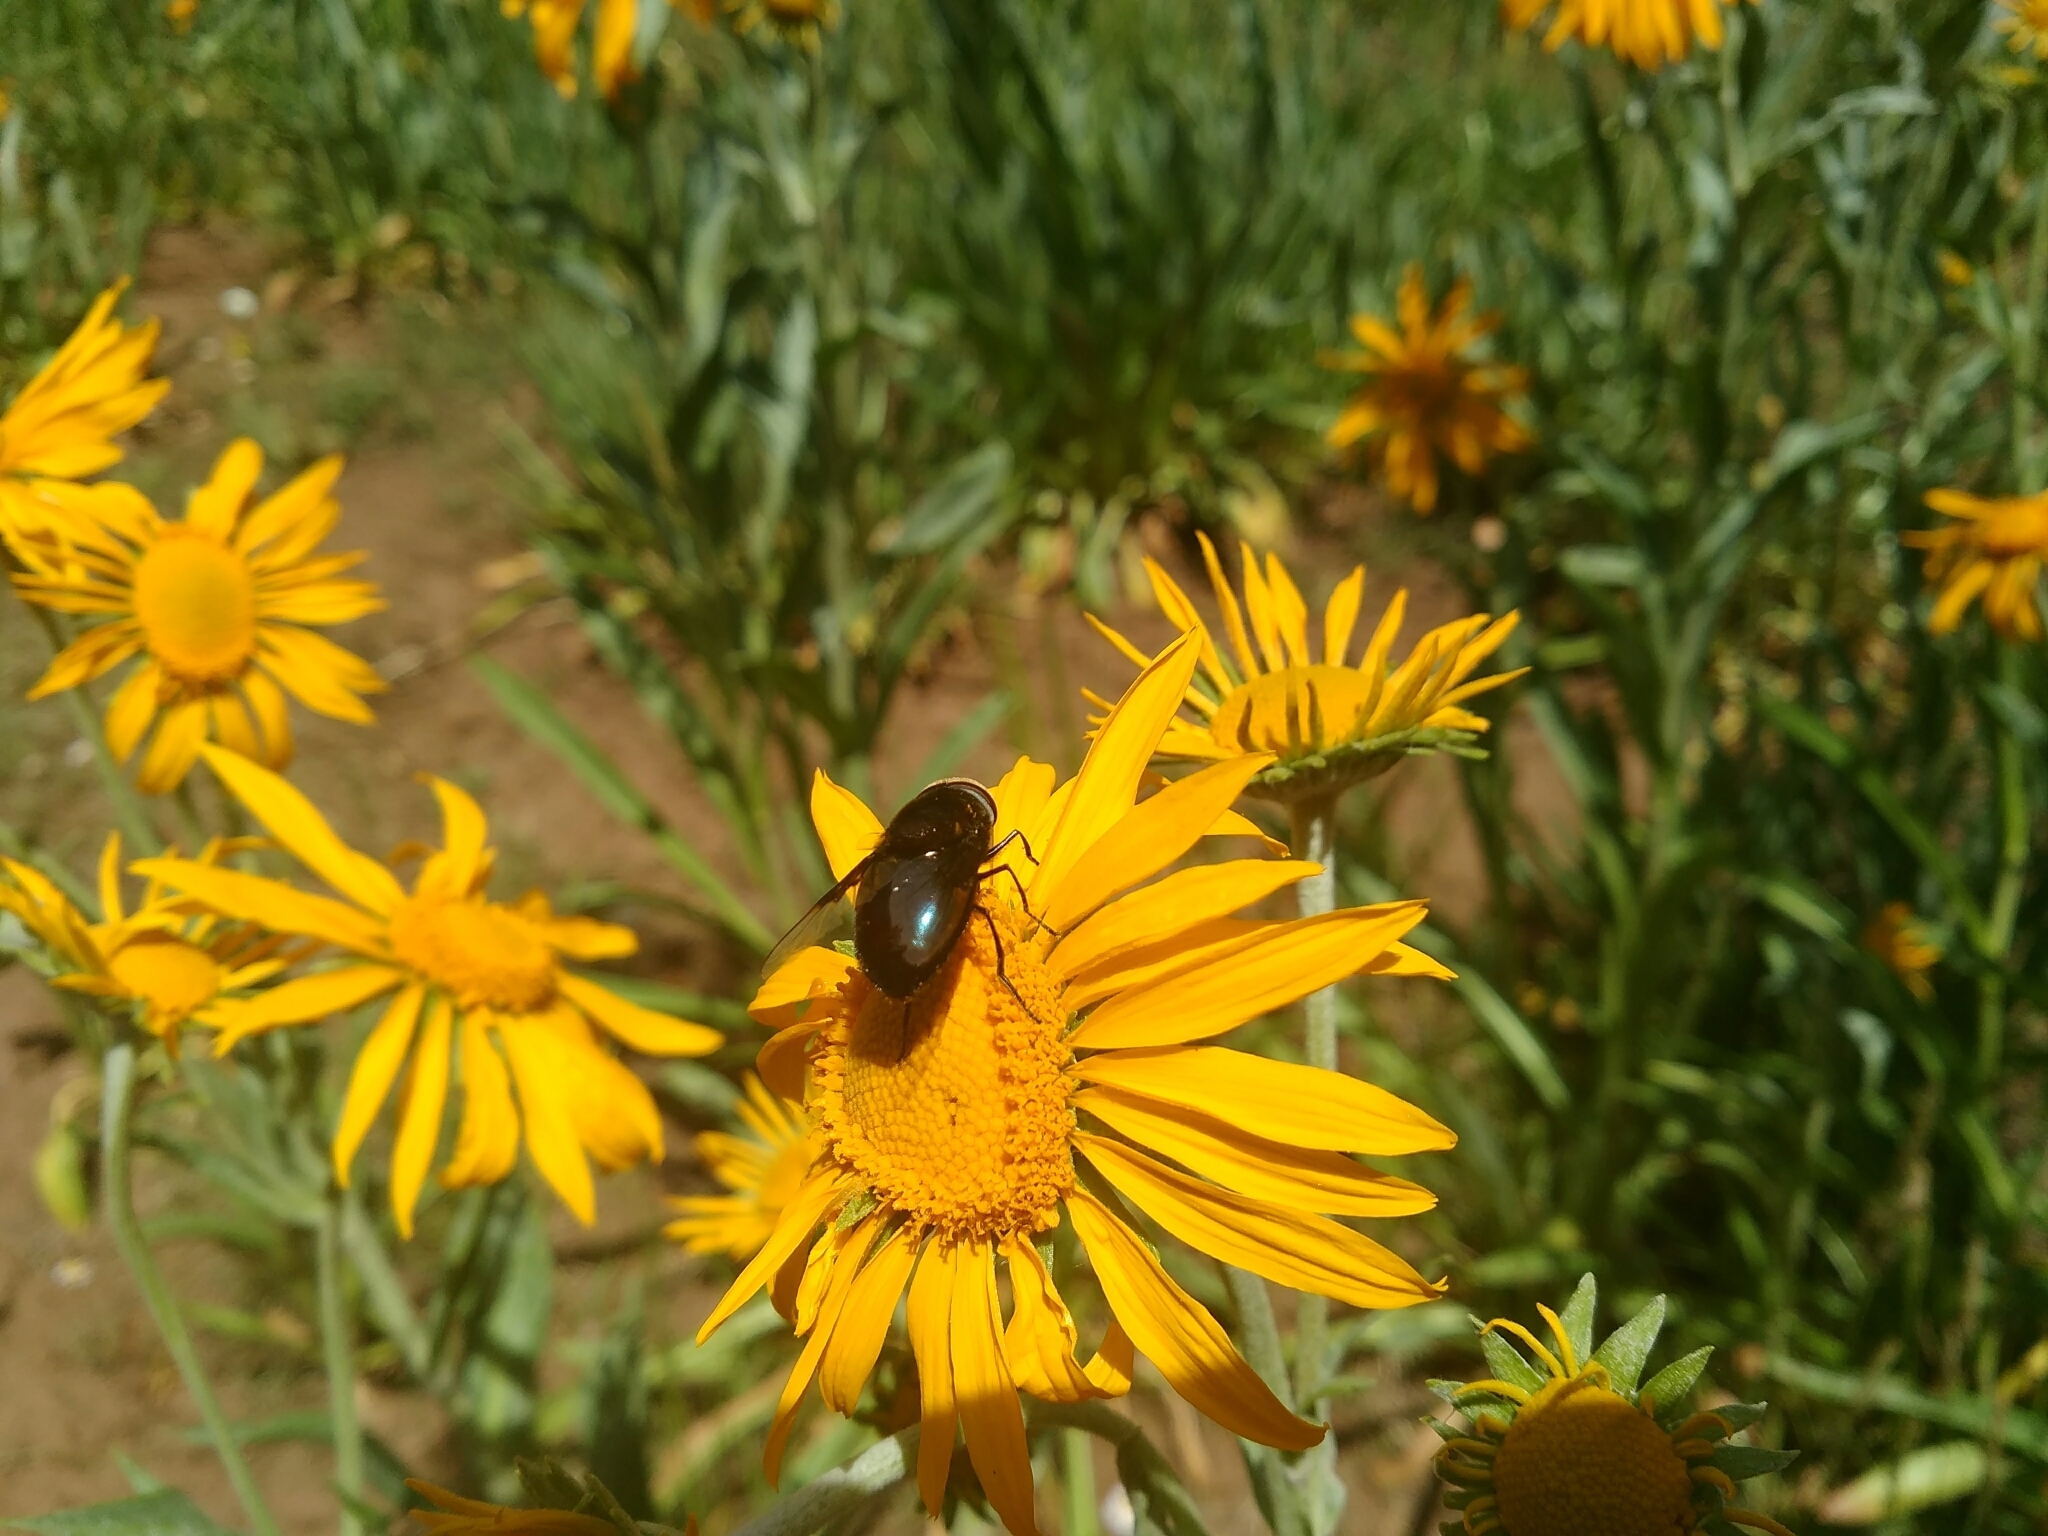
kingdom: Animalia
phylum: Arthropoda
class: Insecta
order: Diptera
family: Syrphidae
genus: Copestylum
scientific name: Copestylum violaceum
